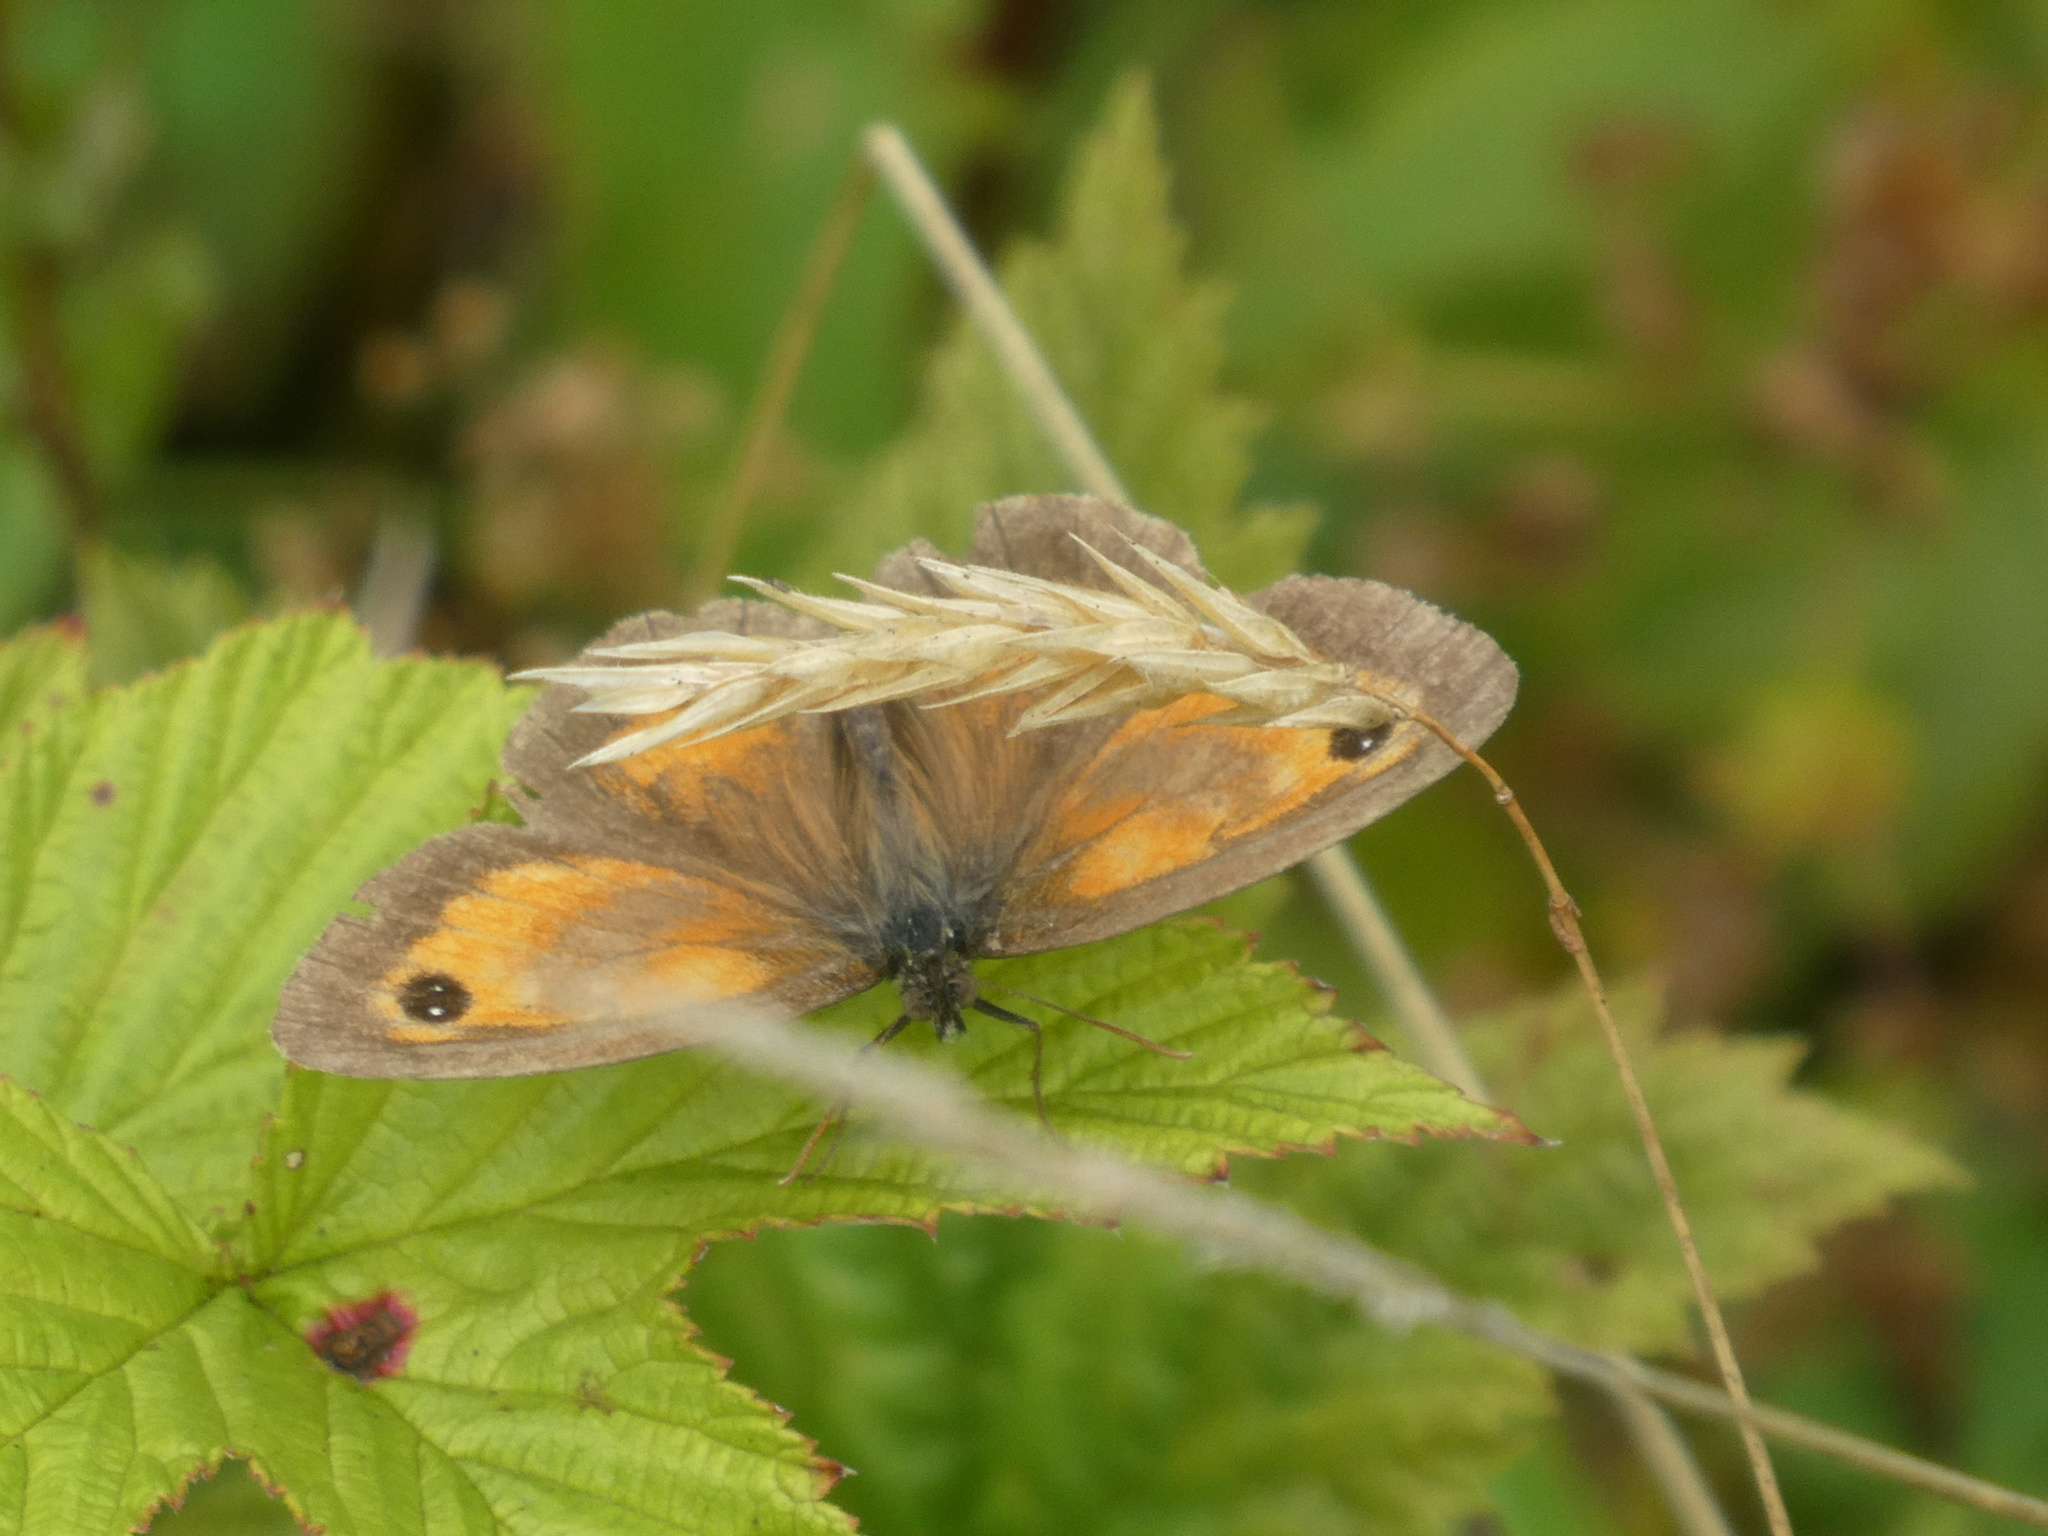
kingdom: Animalia
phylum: Arthropoda
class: Insecta
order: Lepidoptera
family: Nymphalidae
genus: Pyronia
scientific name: Pyronia tithonus
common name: Gatekeeper
